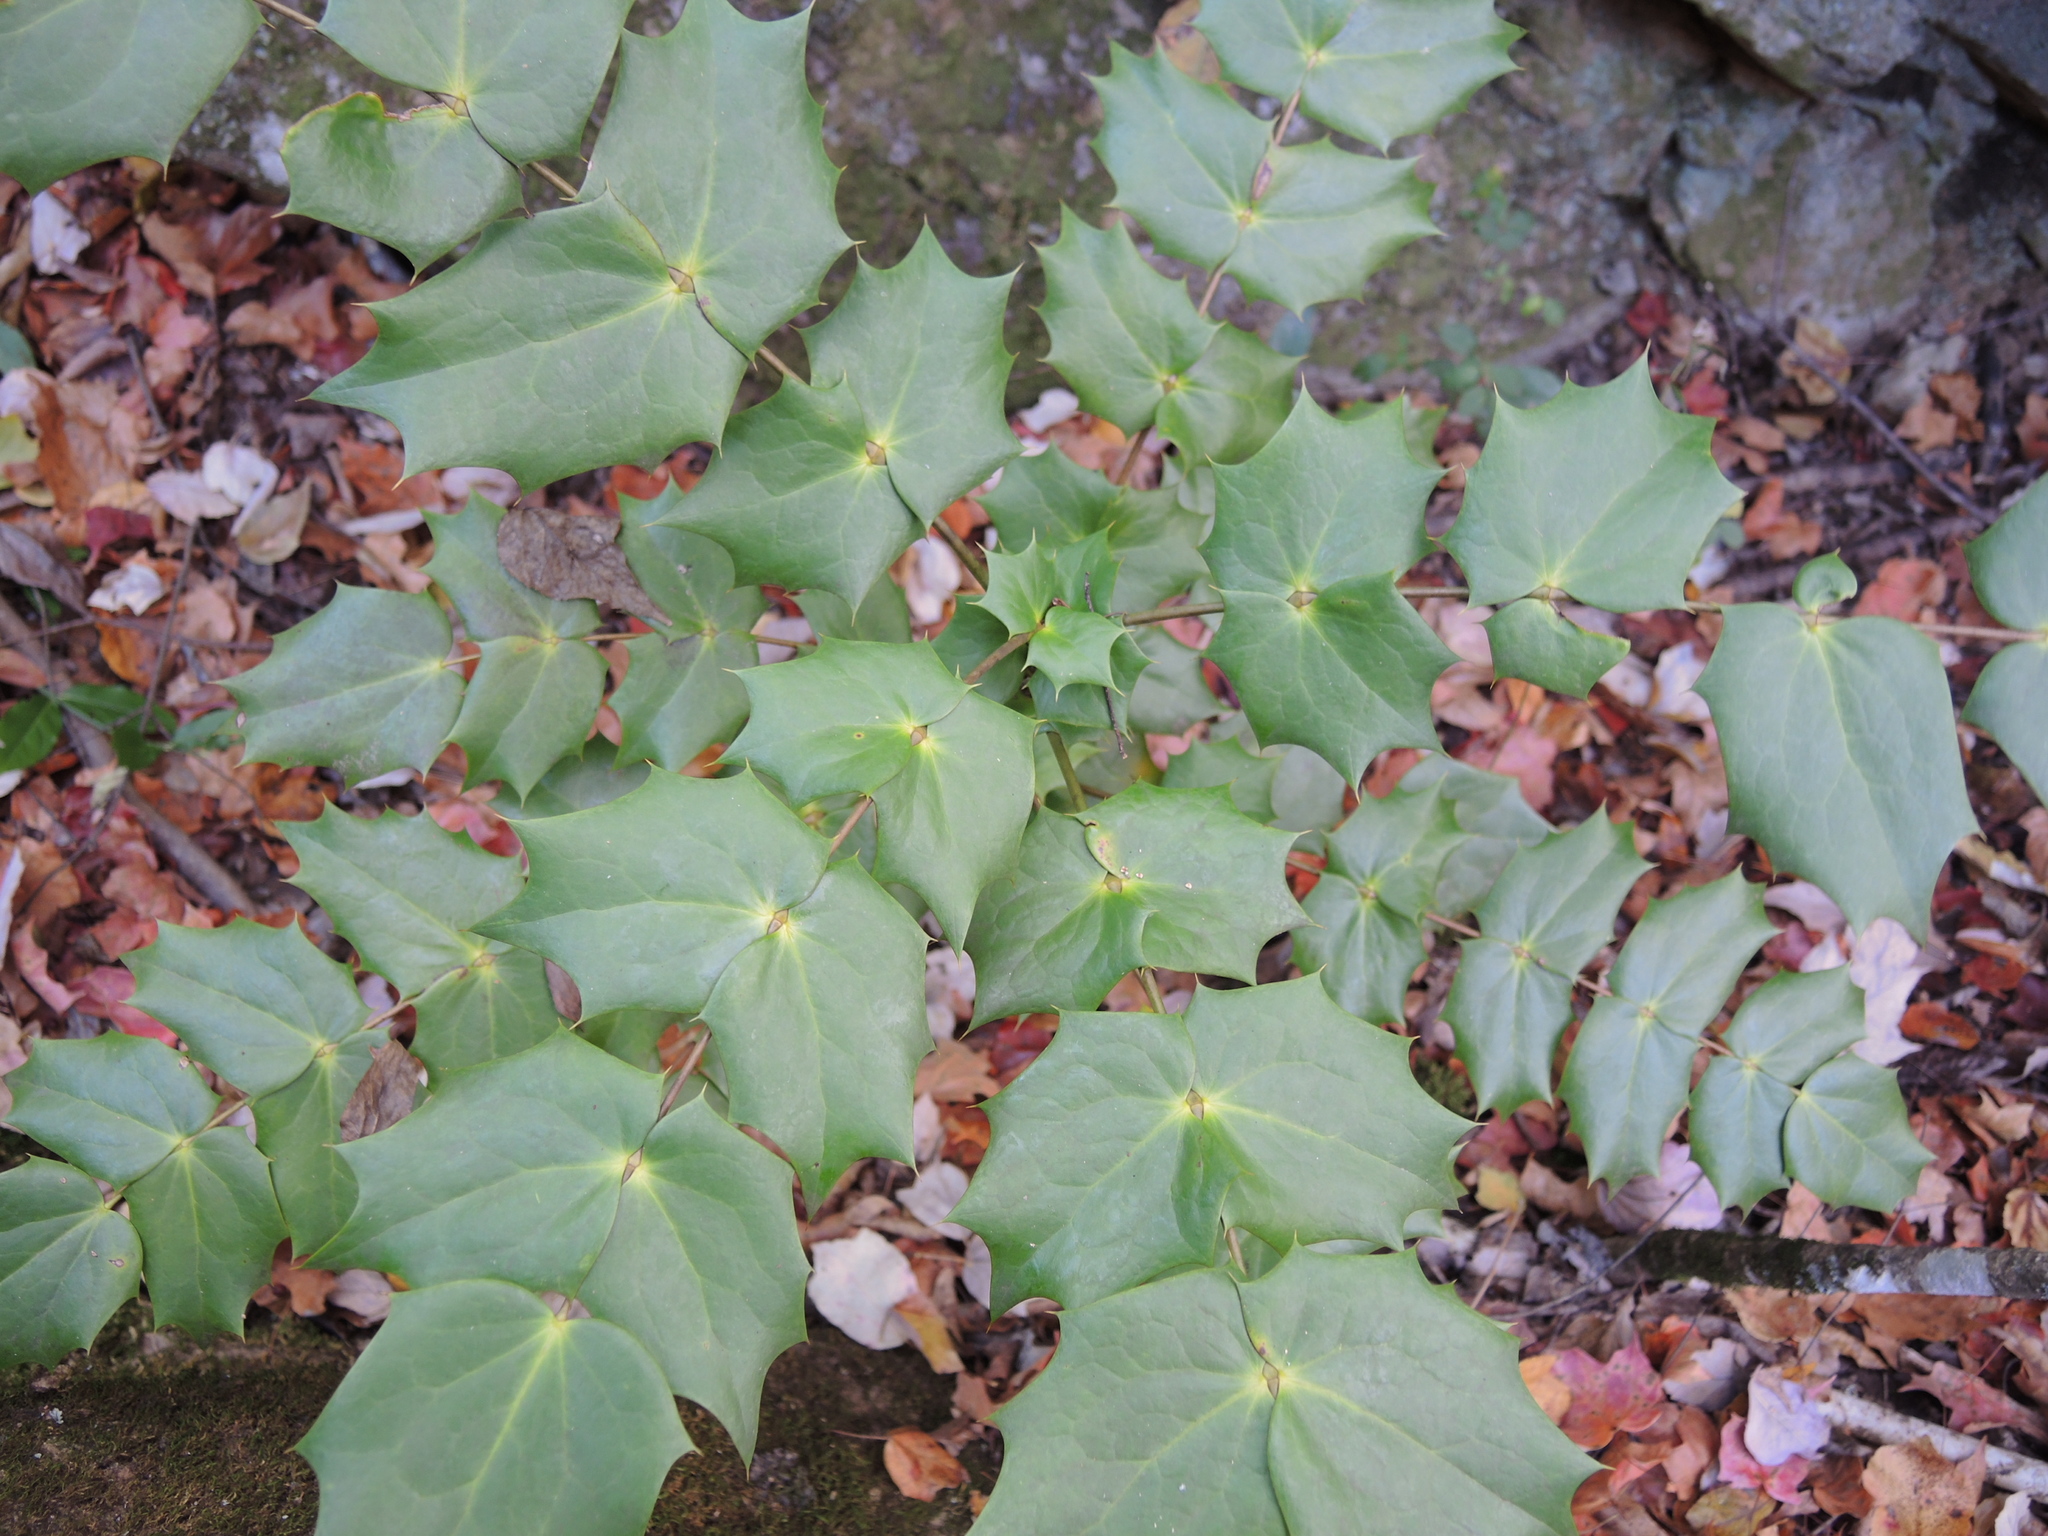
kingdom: Plantae
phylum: Tracheophyta
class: Magnoliopsida
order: Ranunculales
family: Berberidaceae
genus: Mahonia
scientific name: Mahonia bealei
